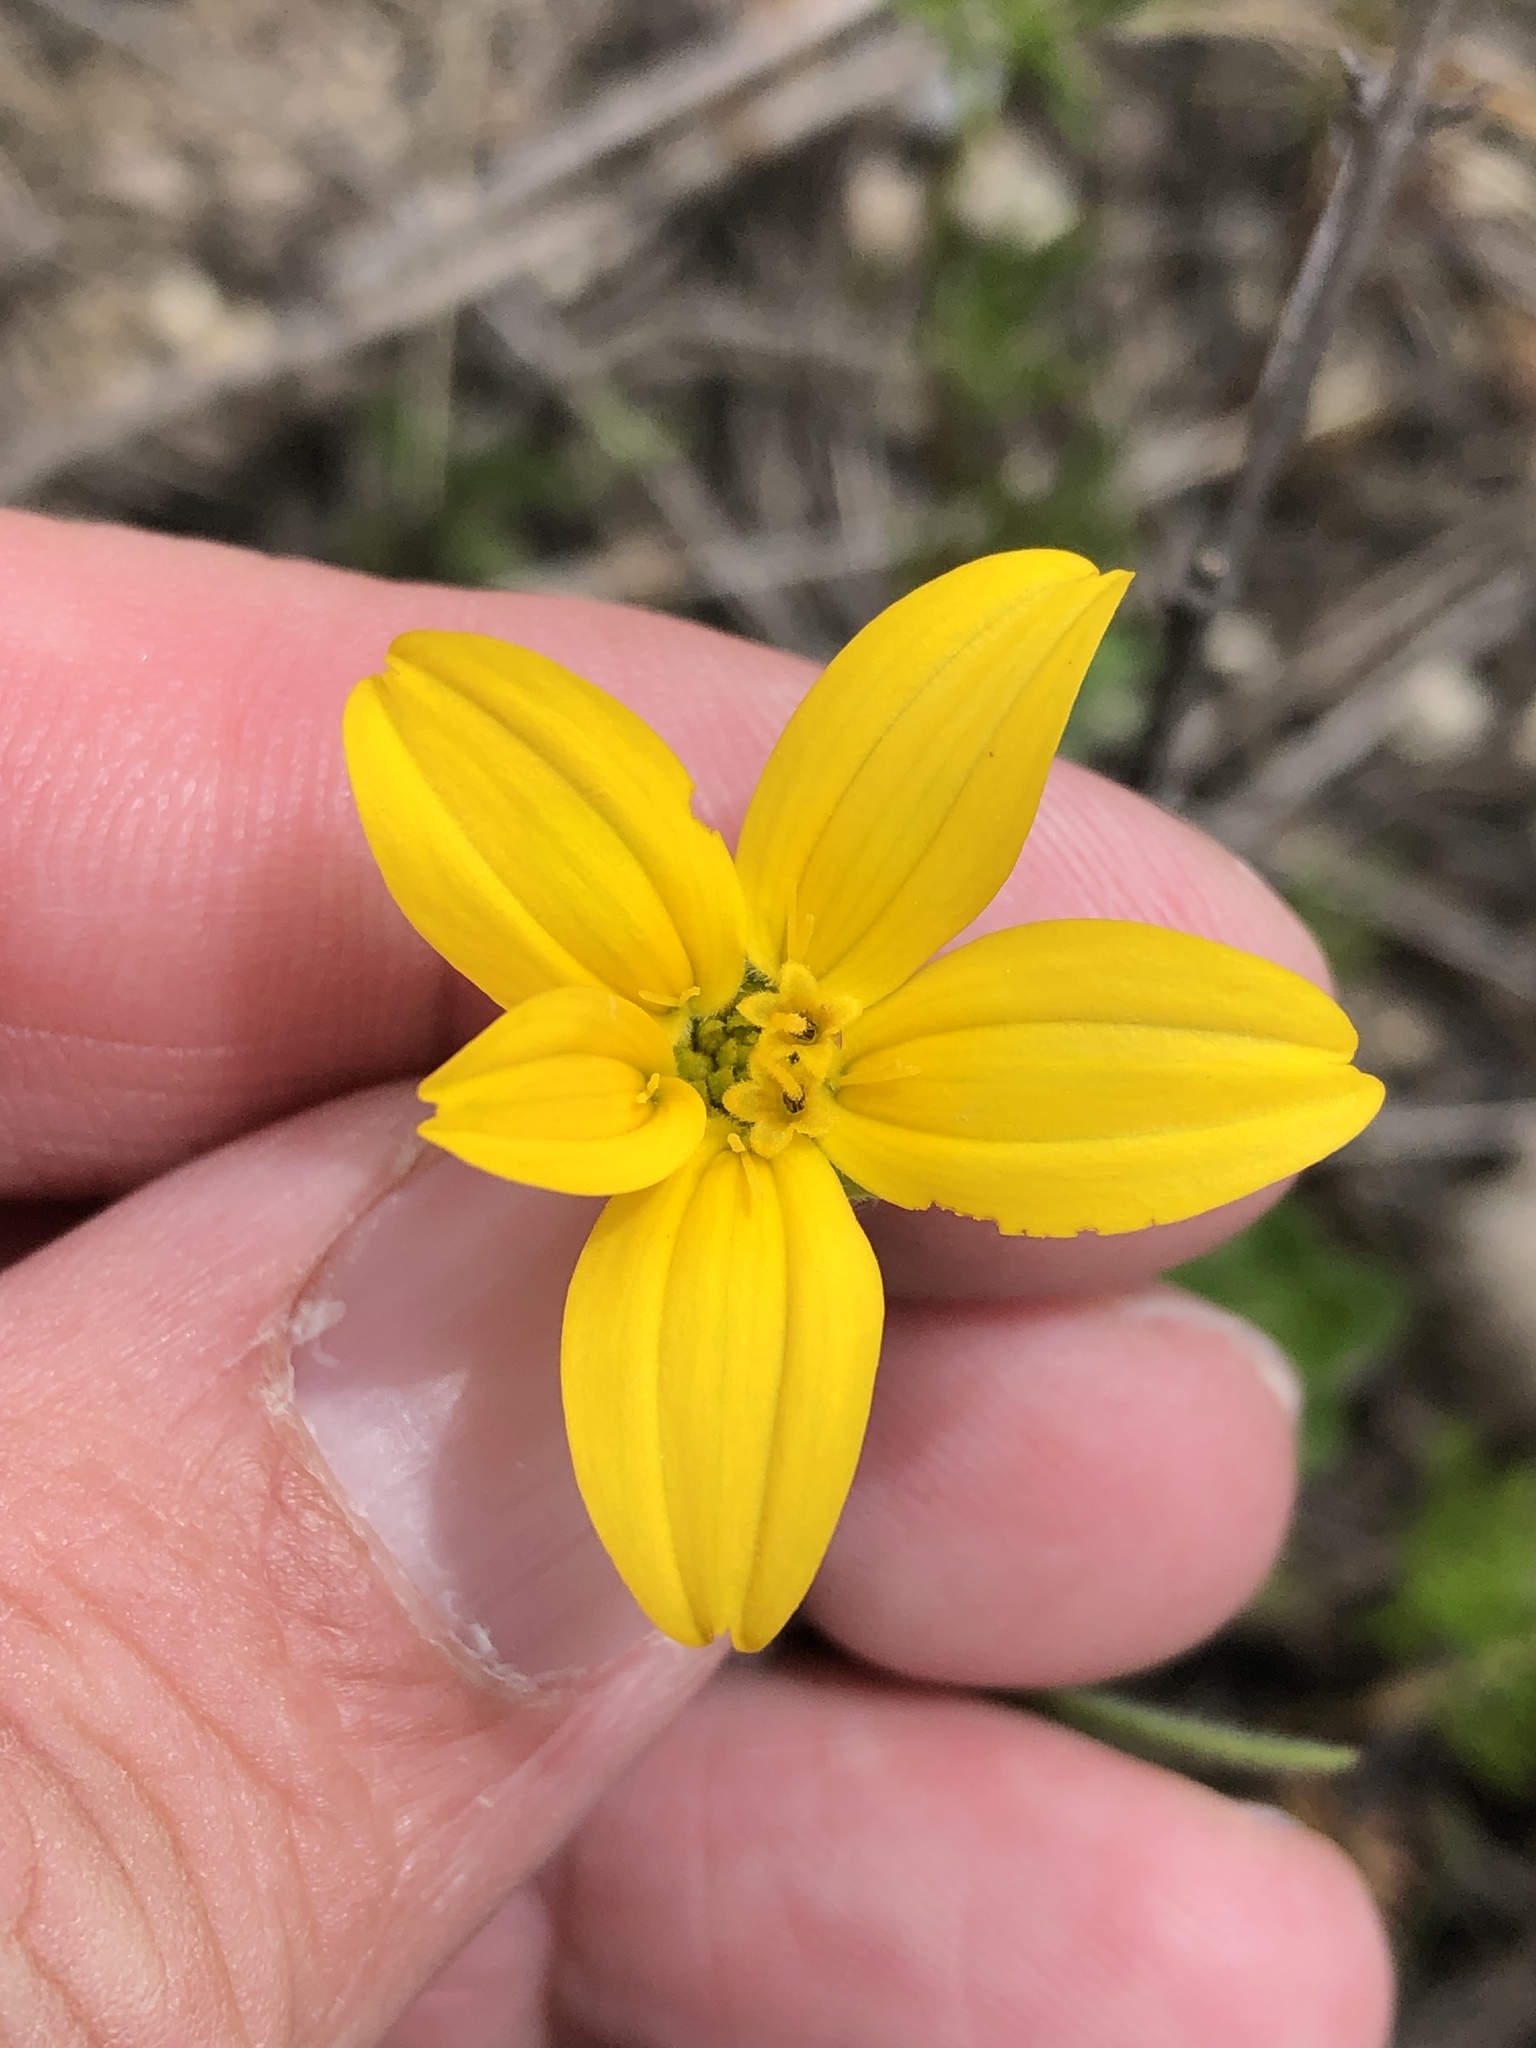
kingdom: Plantae
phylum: Tracheophyta
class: Magnoliopsida
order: Asterales
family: Asteraceae
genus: Lindheimera
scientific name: Lindheimera texana
